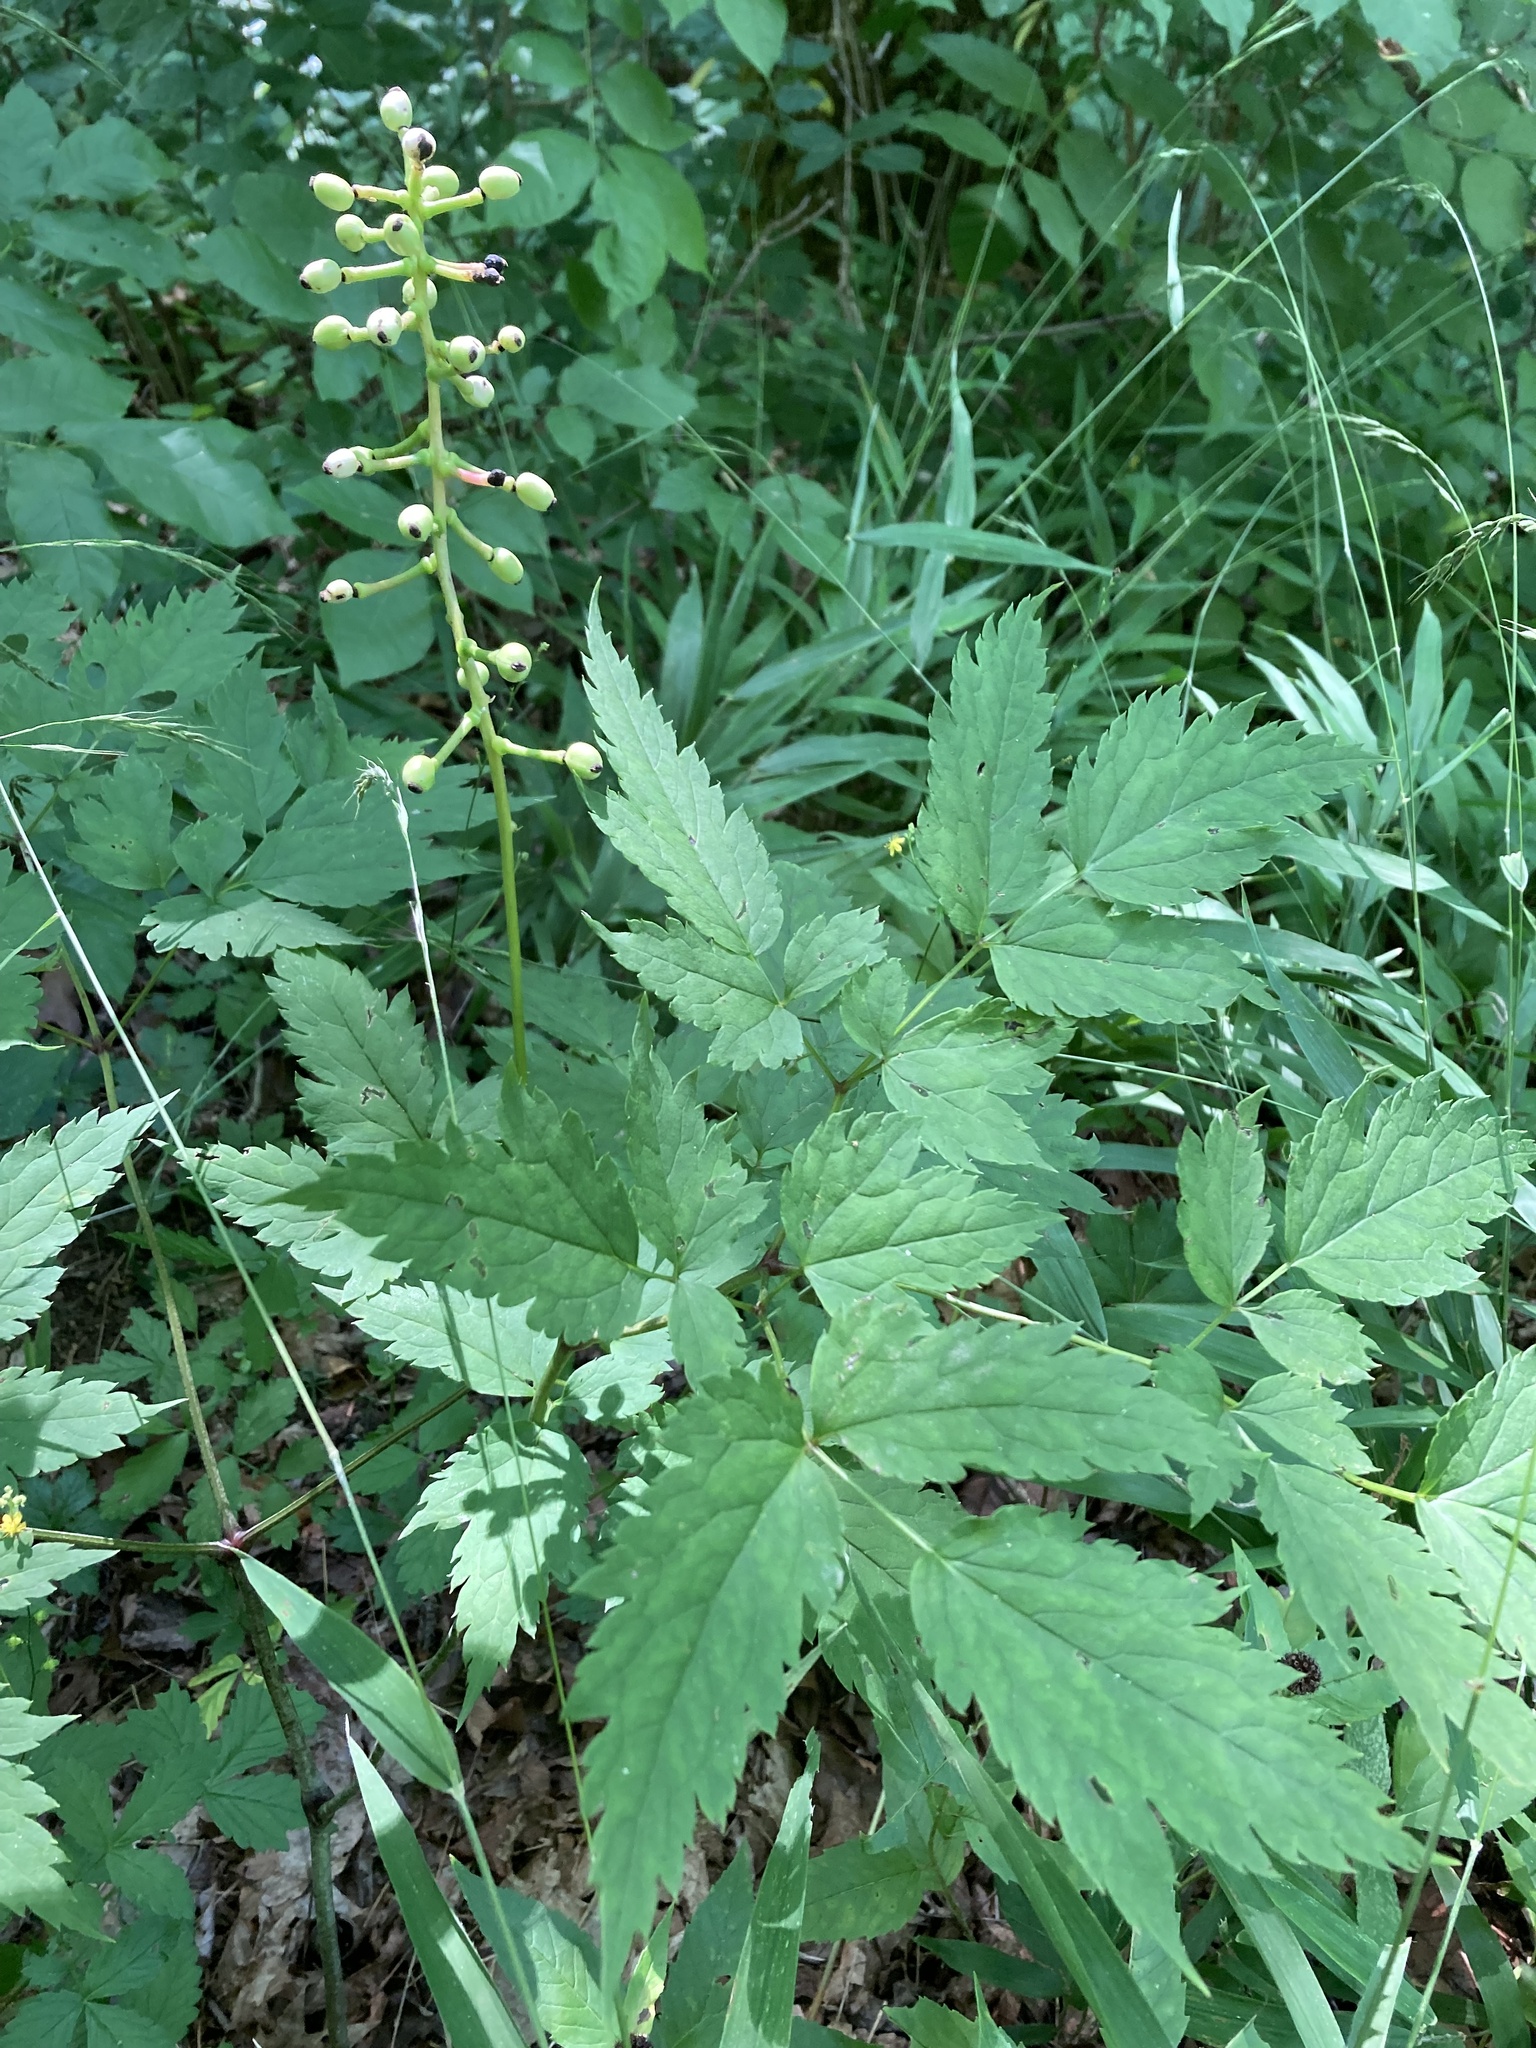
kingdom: Plantae
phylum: Tracheophyta
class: Magnoliopsida
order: Ranunculales
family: Ranunculaceae
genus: Actaea
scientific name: Actaea pachypoda
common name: Doll's-eyes
